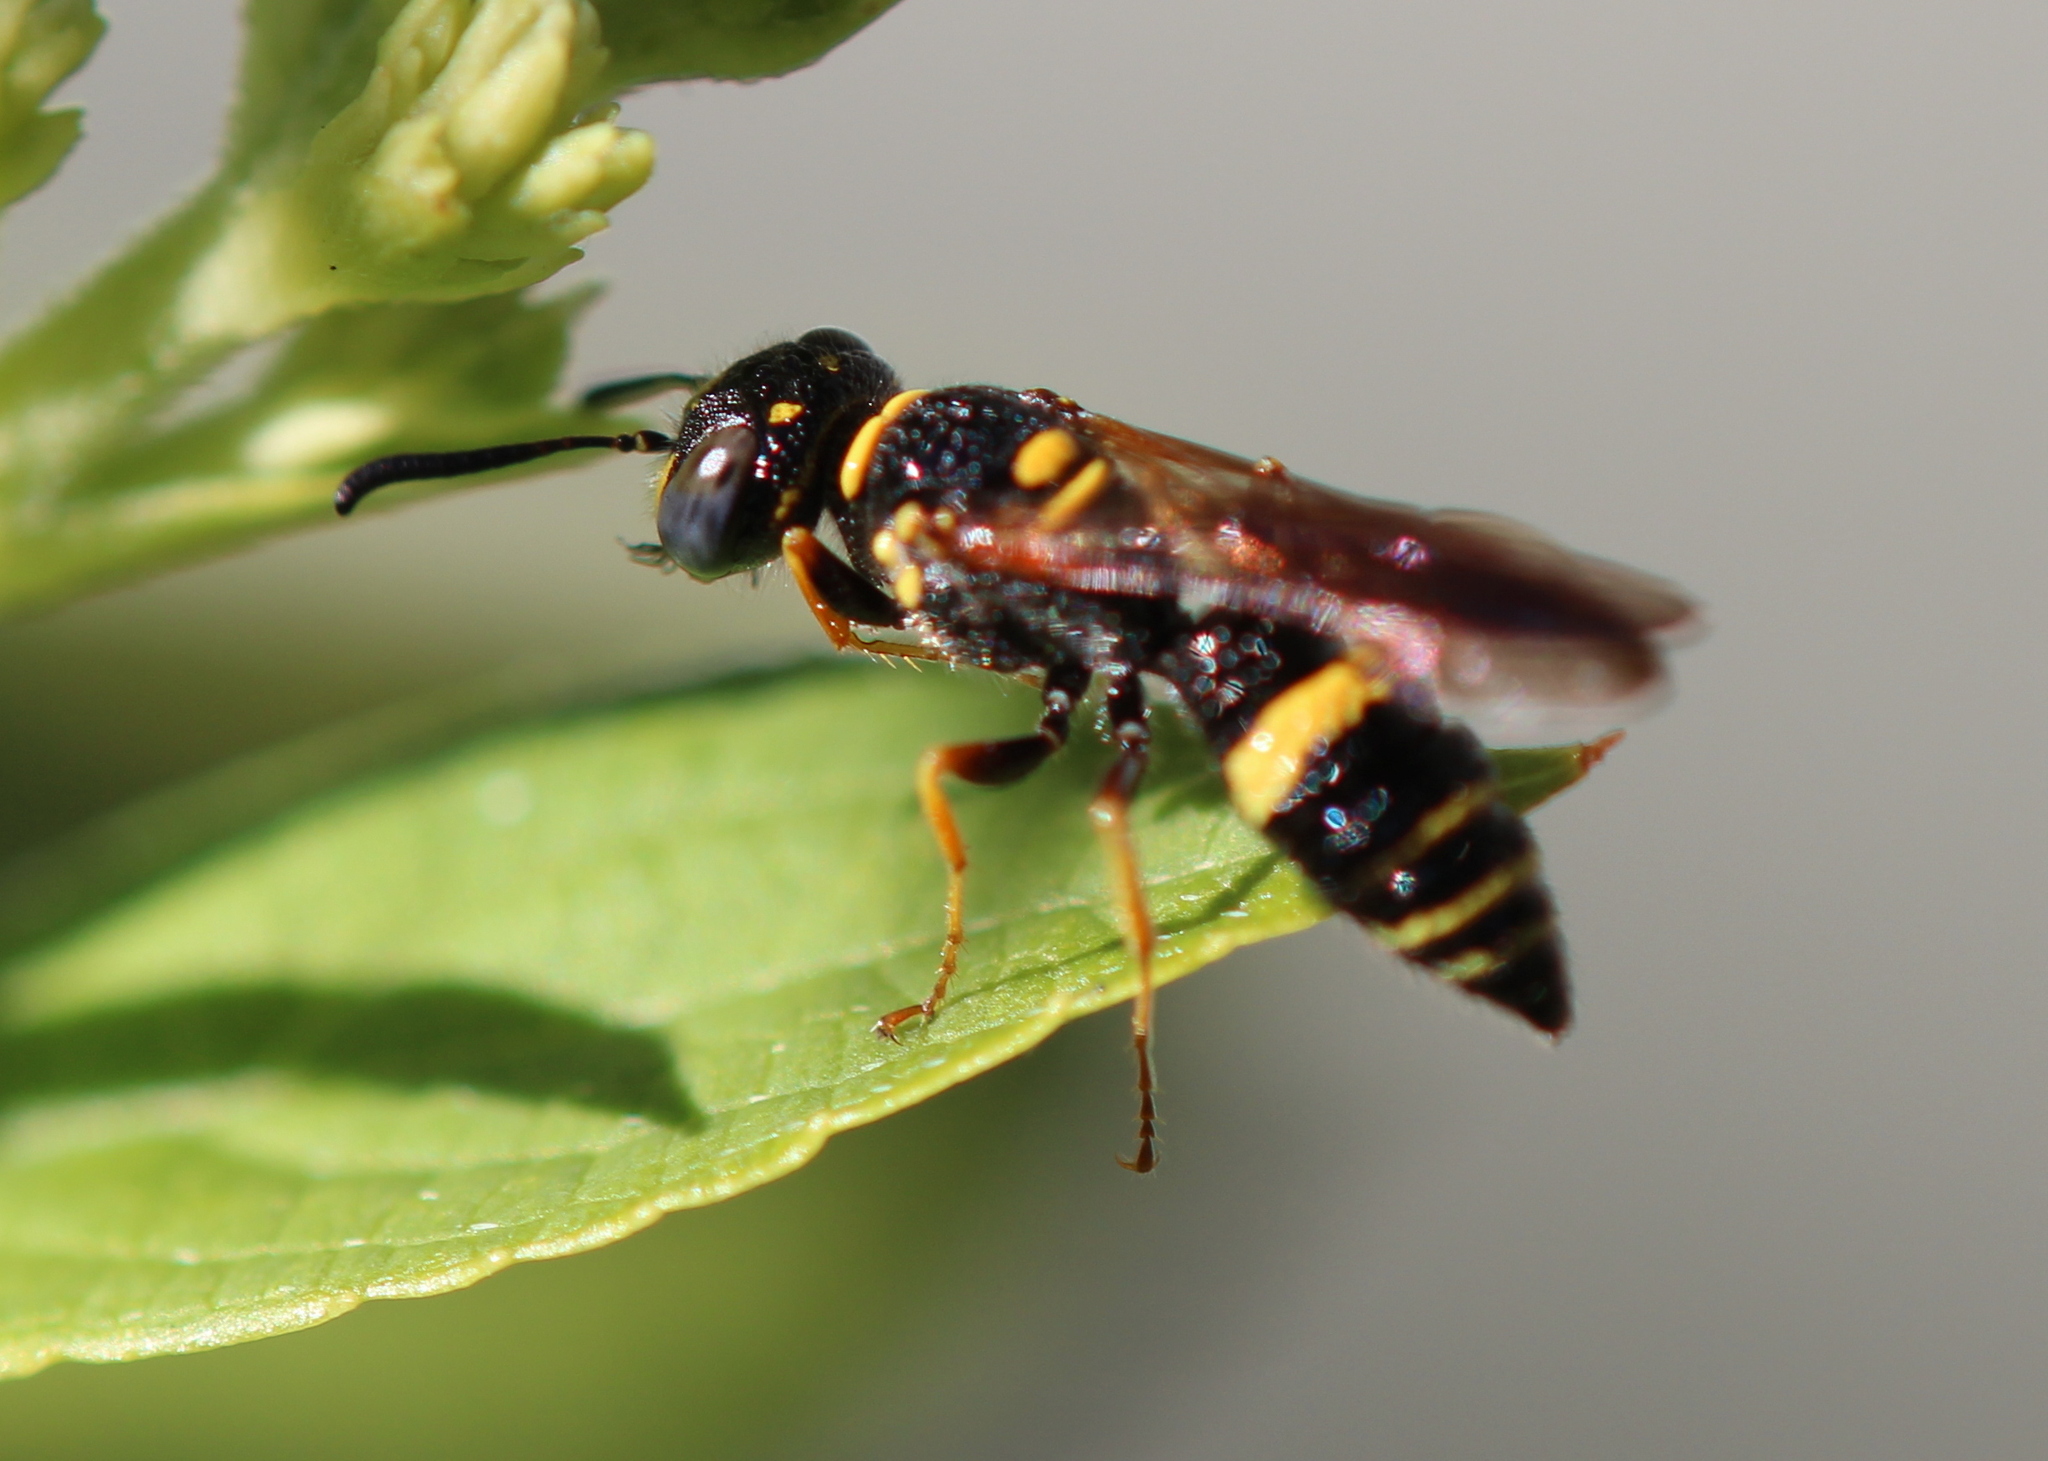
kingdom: Animalia
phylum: Arthropoda
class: Insecta
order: Hymenoptera
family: Crabronidae
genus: Philanthus
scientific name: Philanthus gibbosus
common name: Humped beewolf
